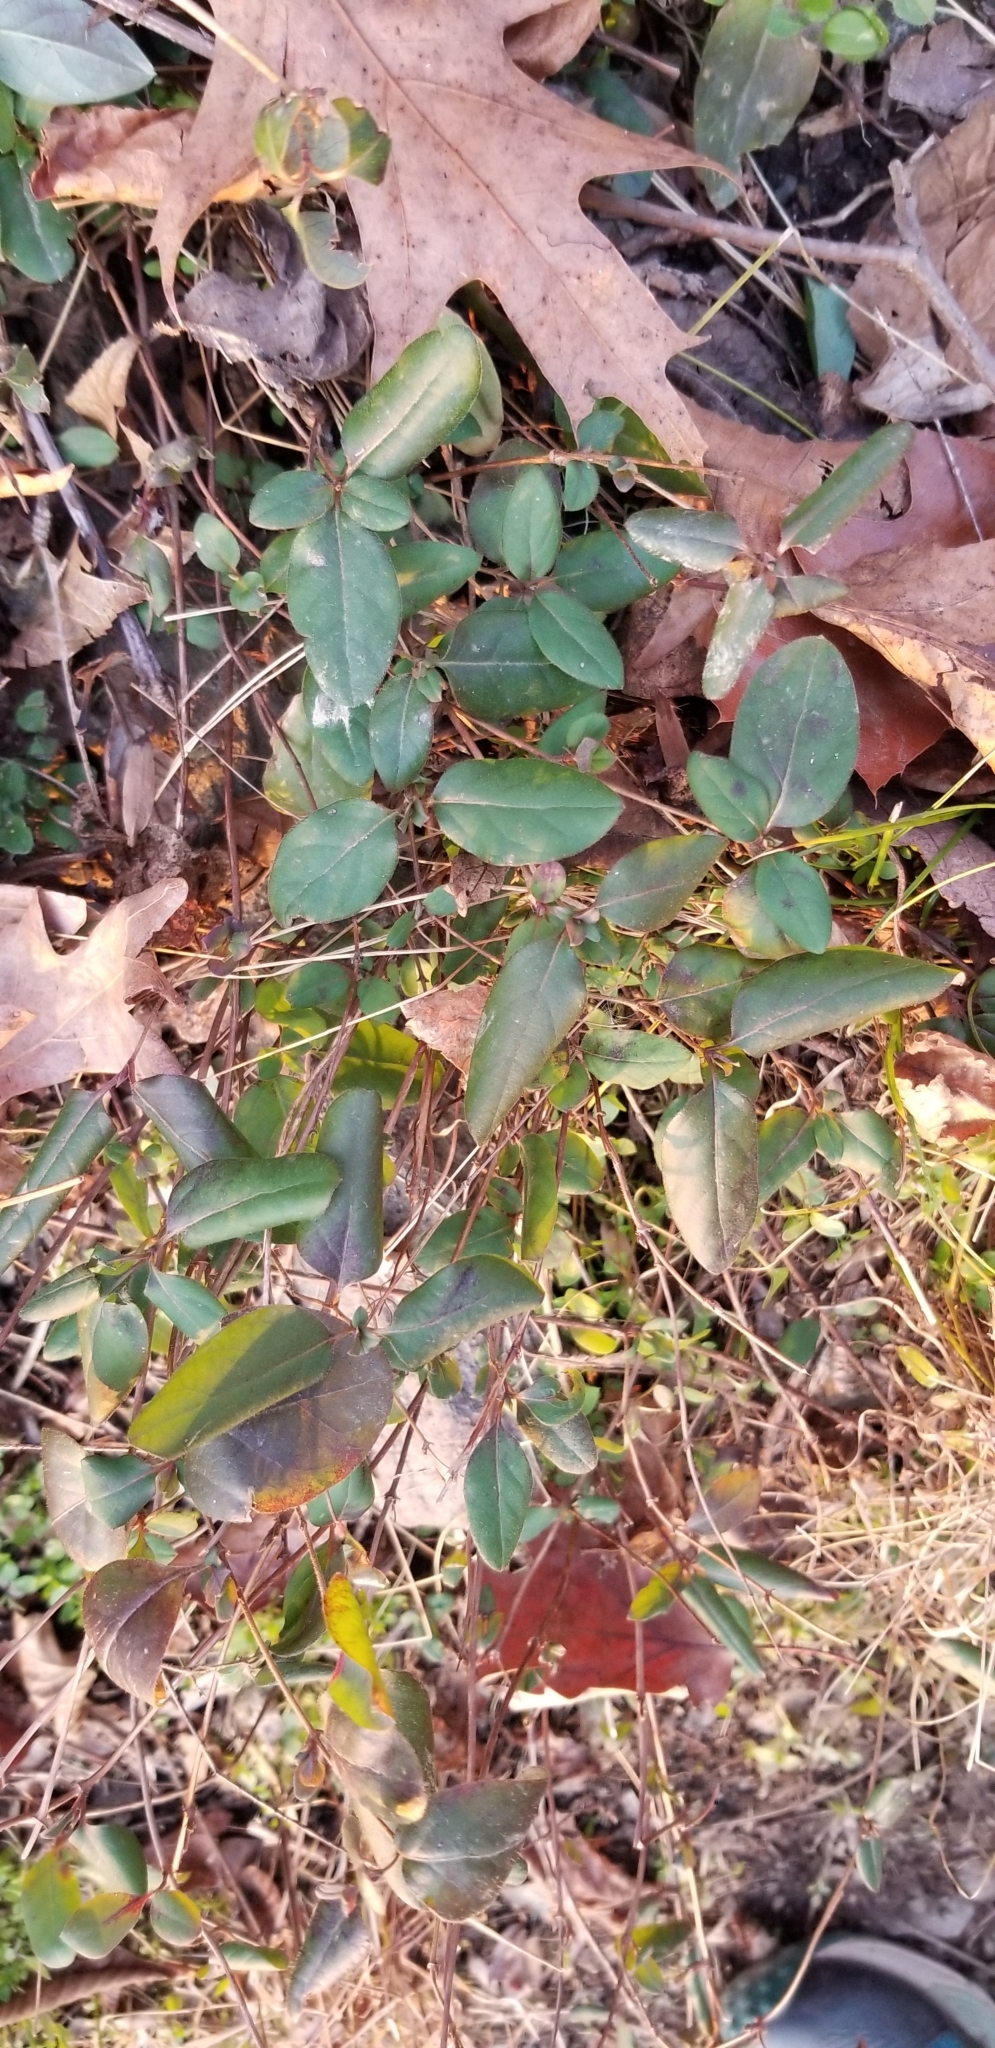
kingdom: Plantae
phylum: Tracheophyta
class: Magnoliopsida
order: Dipsacales
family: Caprifoliaceae
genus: Lonicera
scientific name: Lonicera japonica
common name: Japanese honeysuckle
